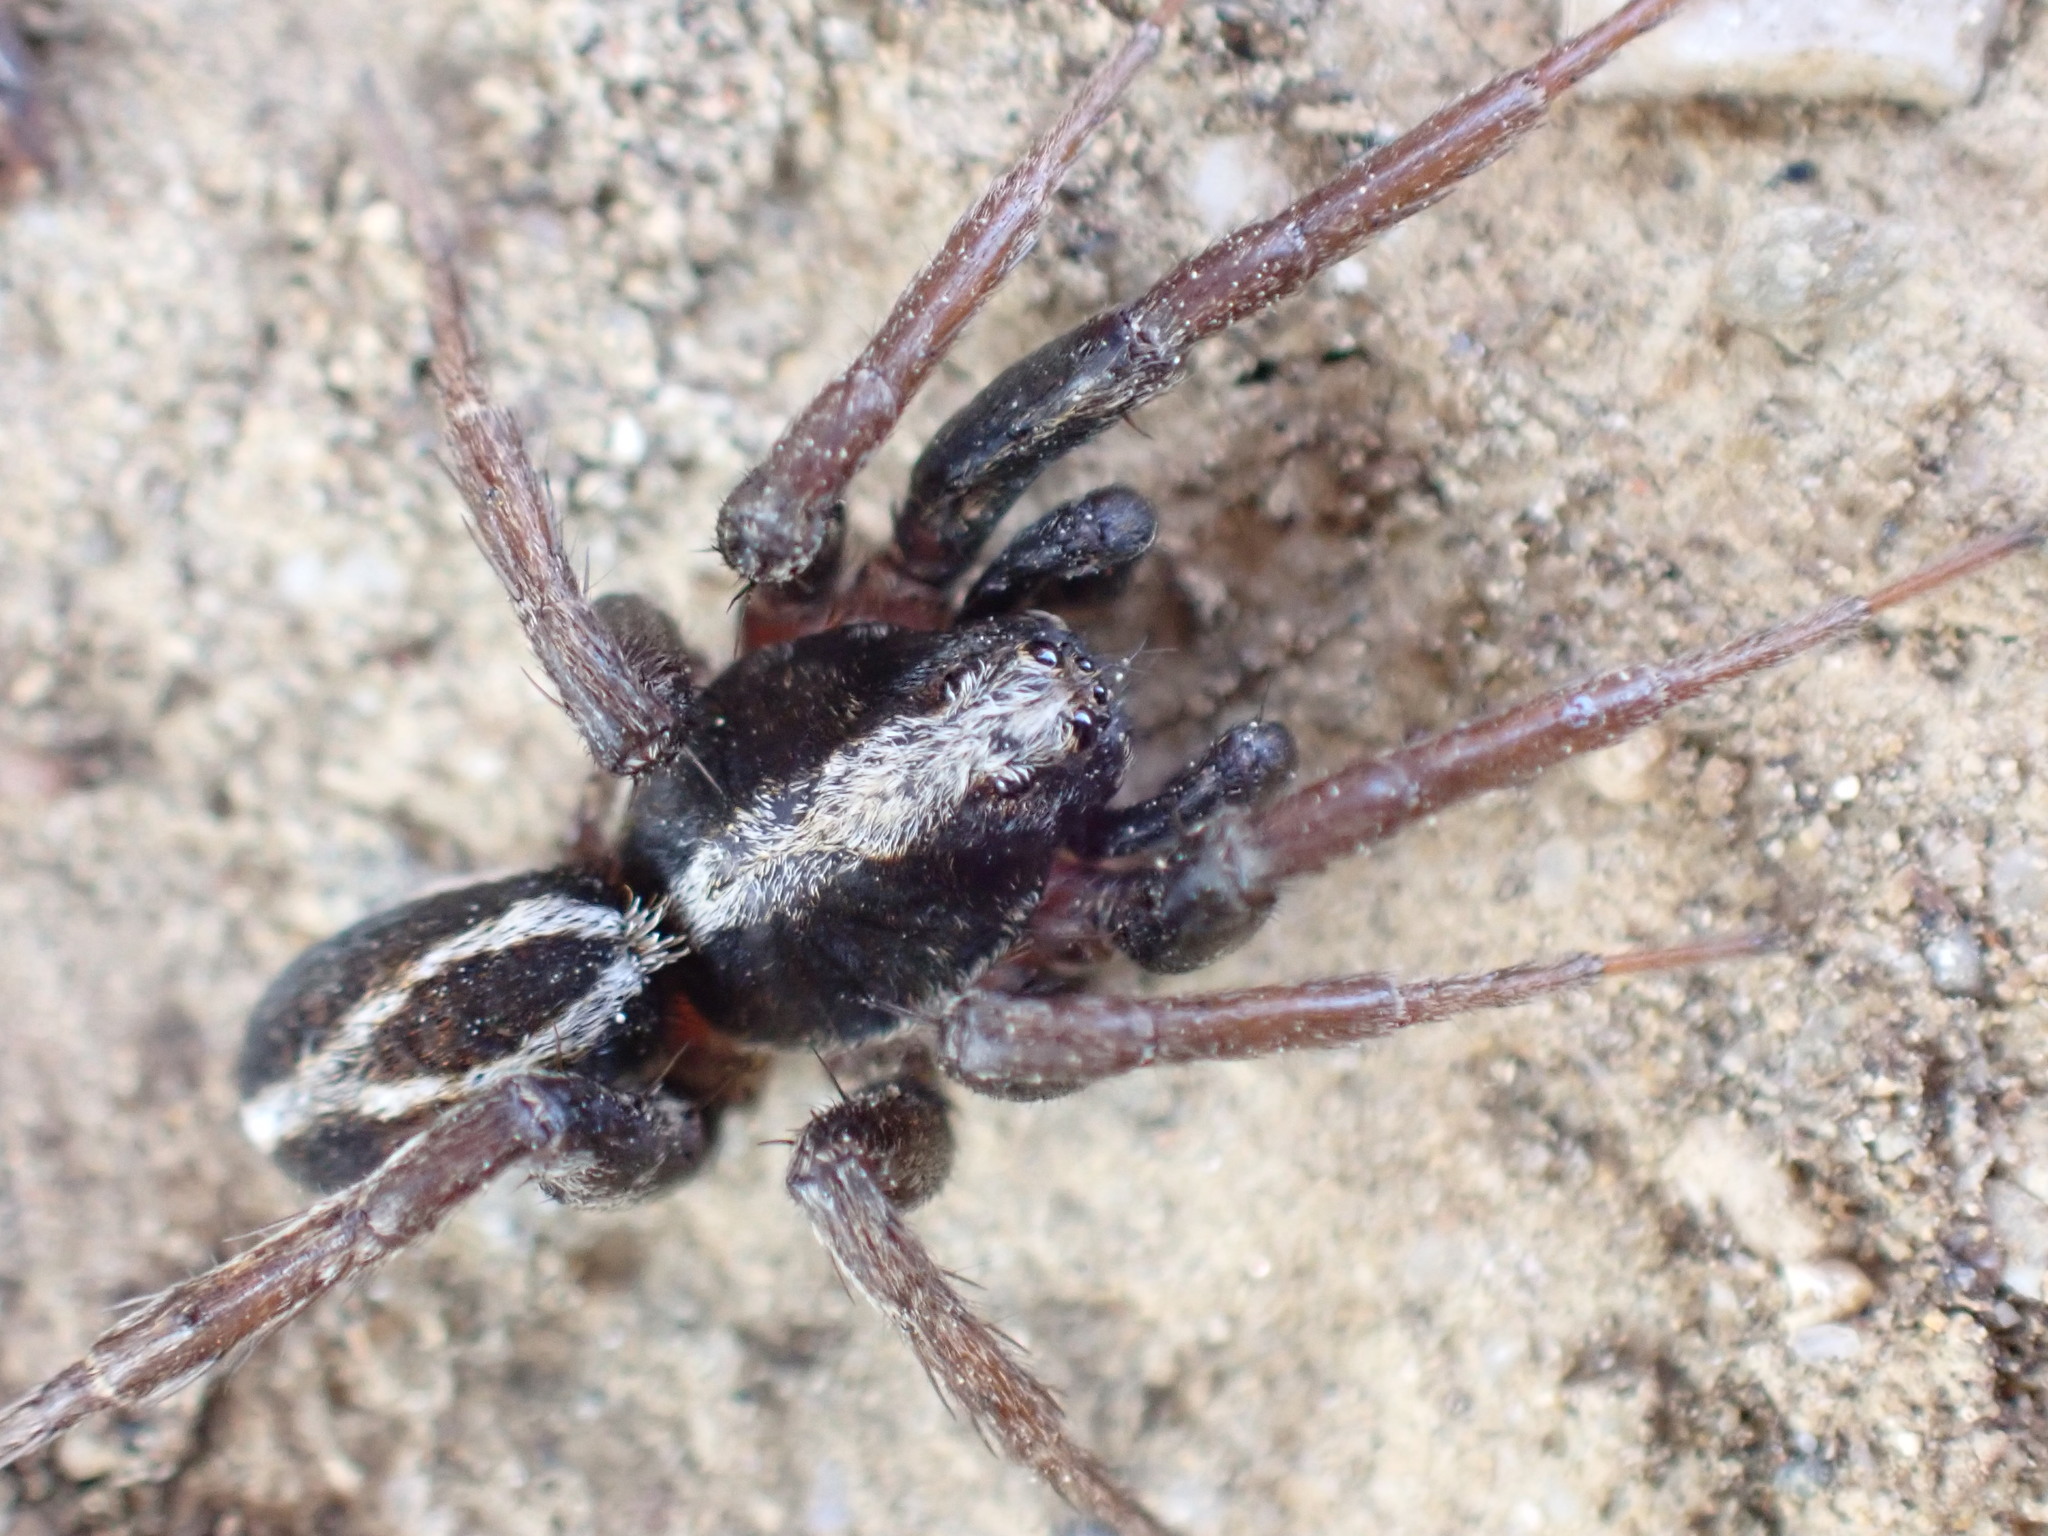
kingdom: Animalia
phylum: Arthropoda
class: Arachnida
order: Araneae
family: Lycosidae
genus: Alopecosa
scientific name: Alopecosa albofasciata
